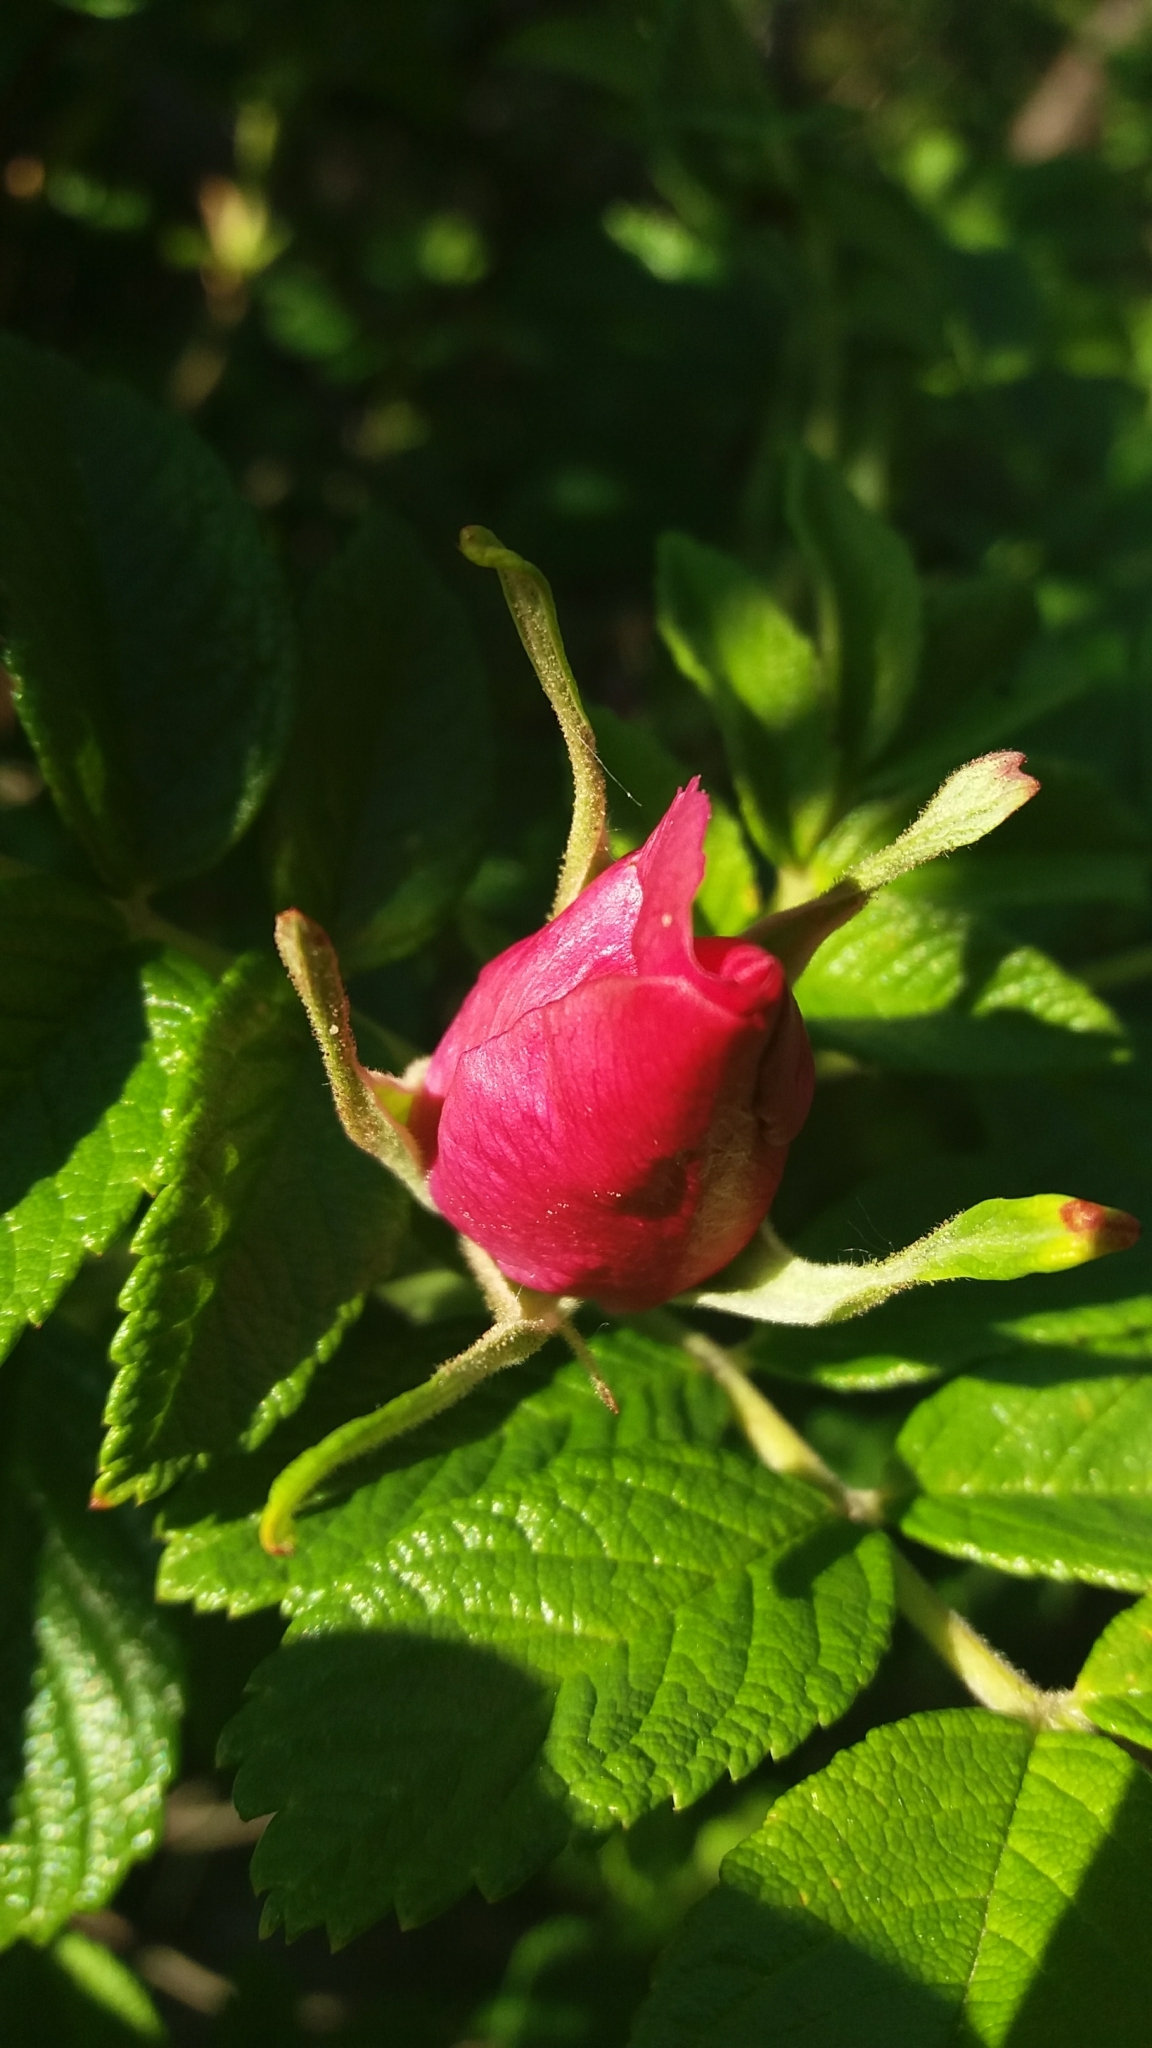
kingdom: Plantae
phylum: Tracheophyta
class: Magnoliopsida
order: Rosales
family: Rosaceae
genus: Rosa
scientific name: Rosa rugosa
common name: Japanese rose
